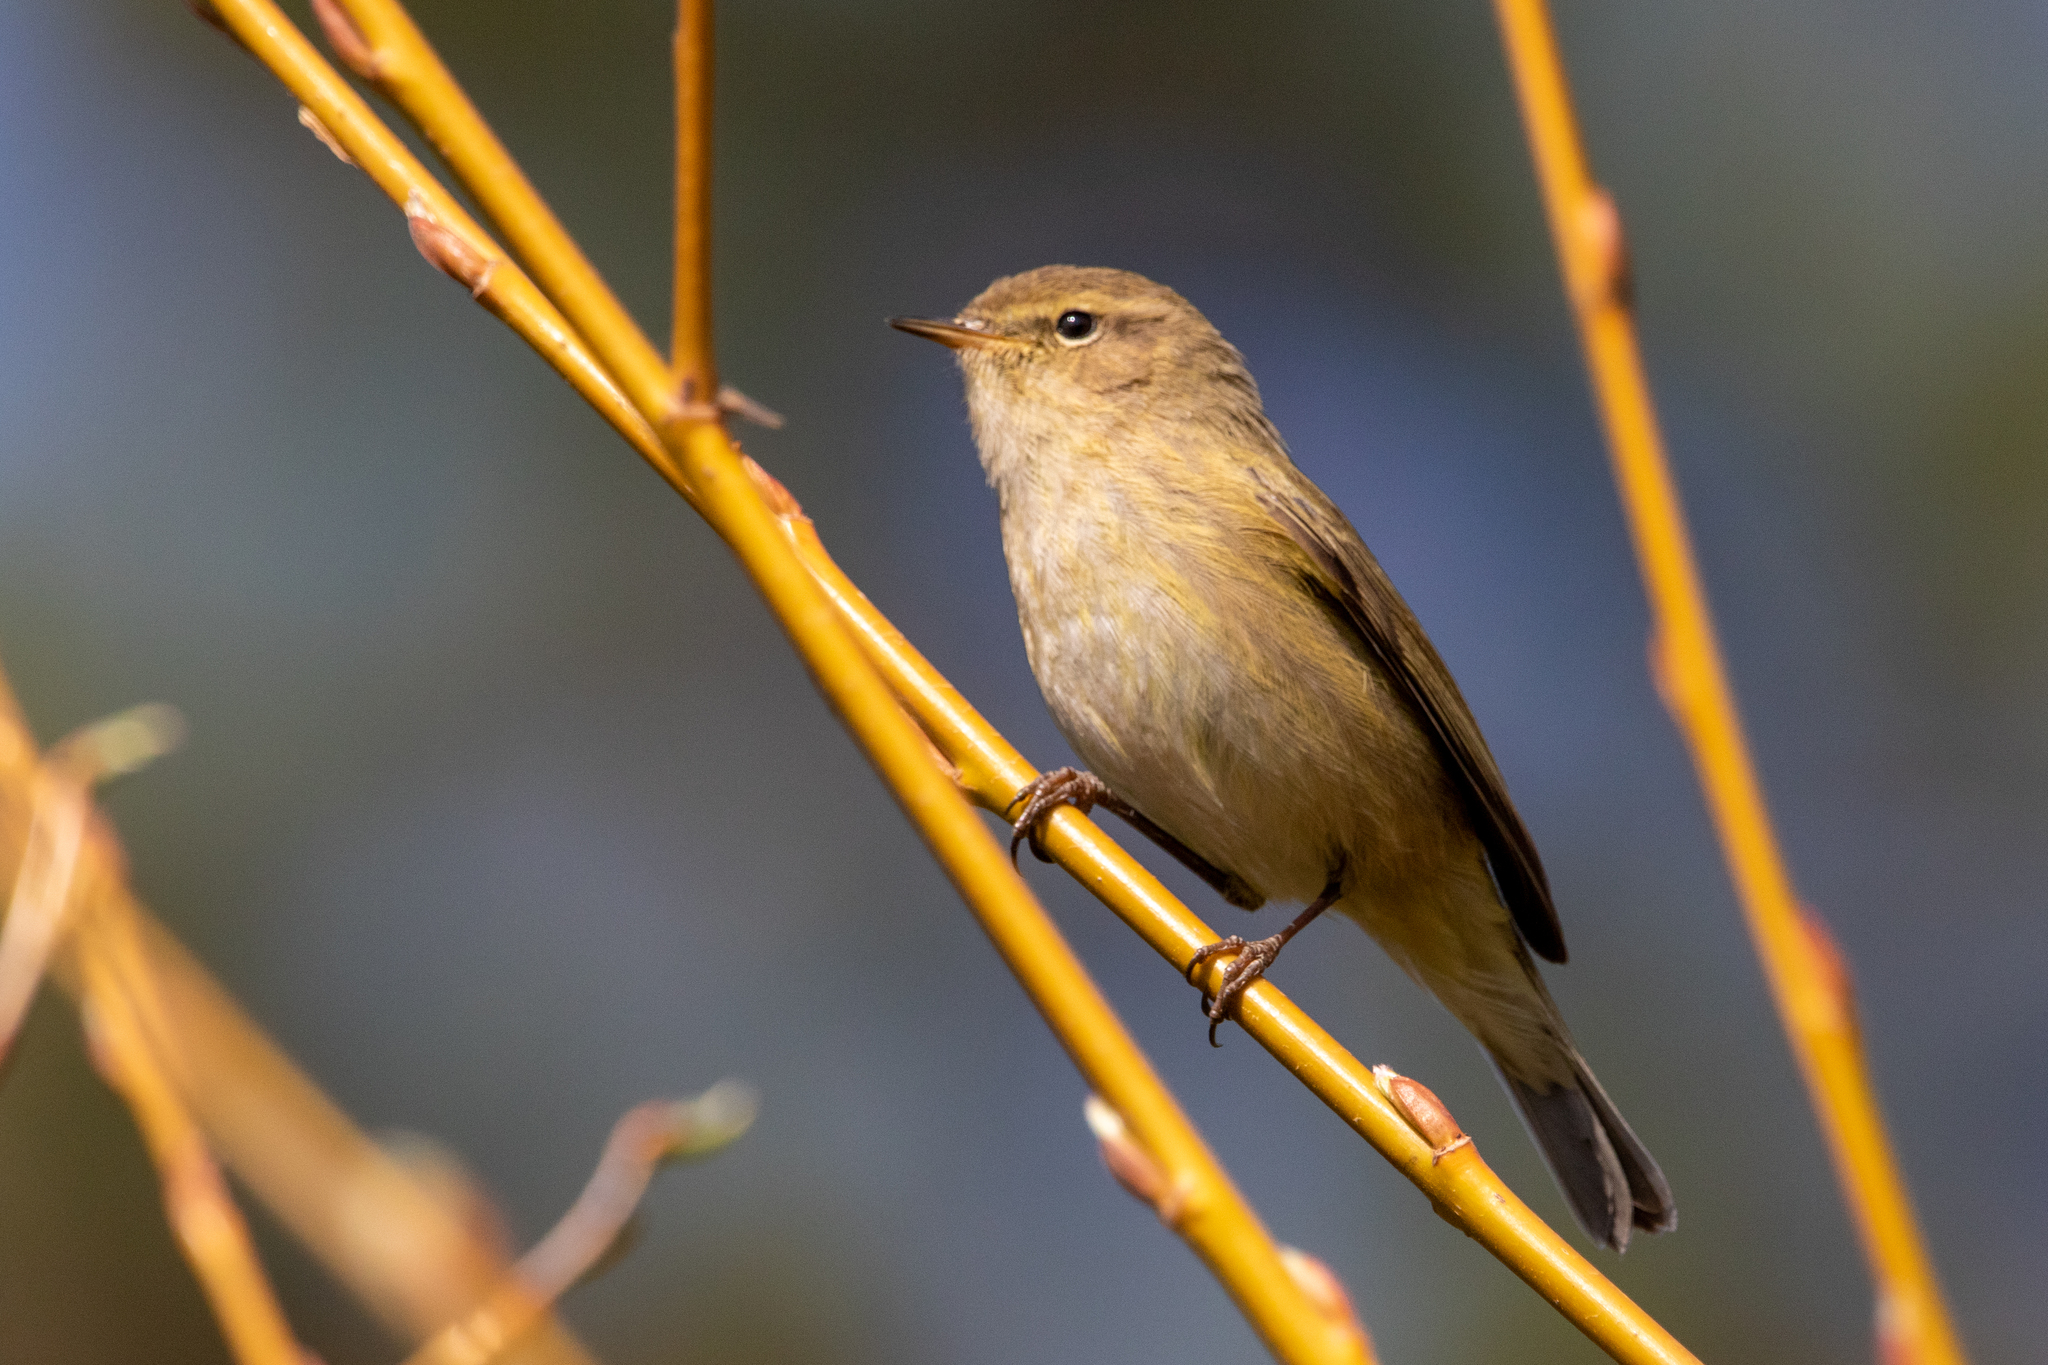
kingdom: Animalia
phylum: Chordata
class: Aves
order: Passeriformes
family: Phylloscopidae
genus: Phylloscopus
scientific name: Phylloscopus collybita
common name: Common chiffchaff
